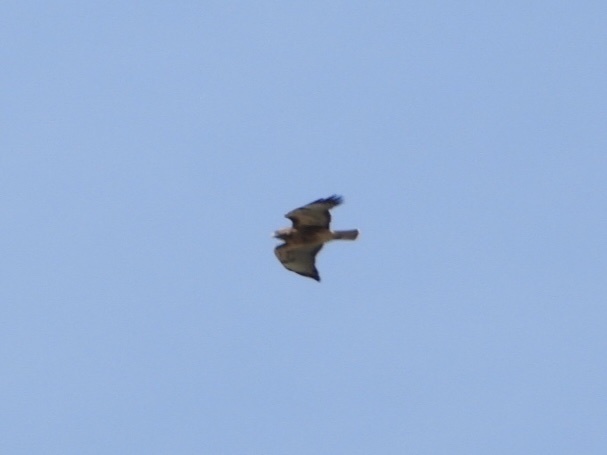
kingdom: Animalia
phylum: Chordata
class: Aves
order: Accipitriformes
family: Accipitridae
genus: Buteo
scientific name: Buteo jamaicensis
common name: Red-tailed hawk
